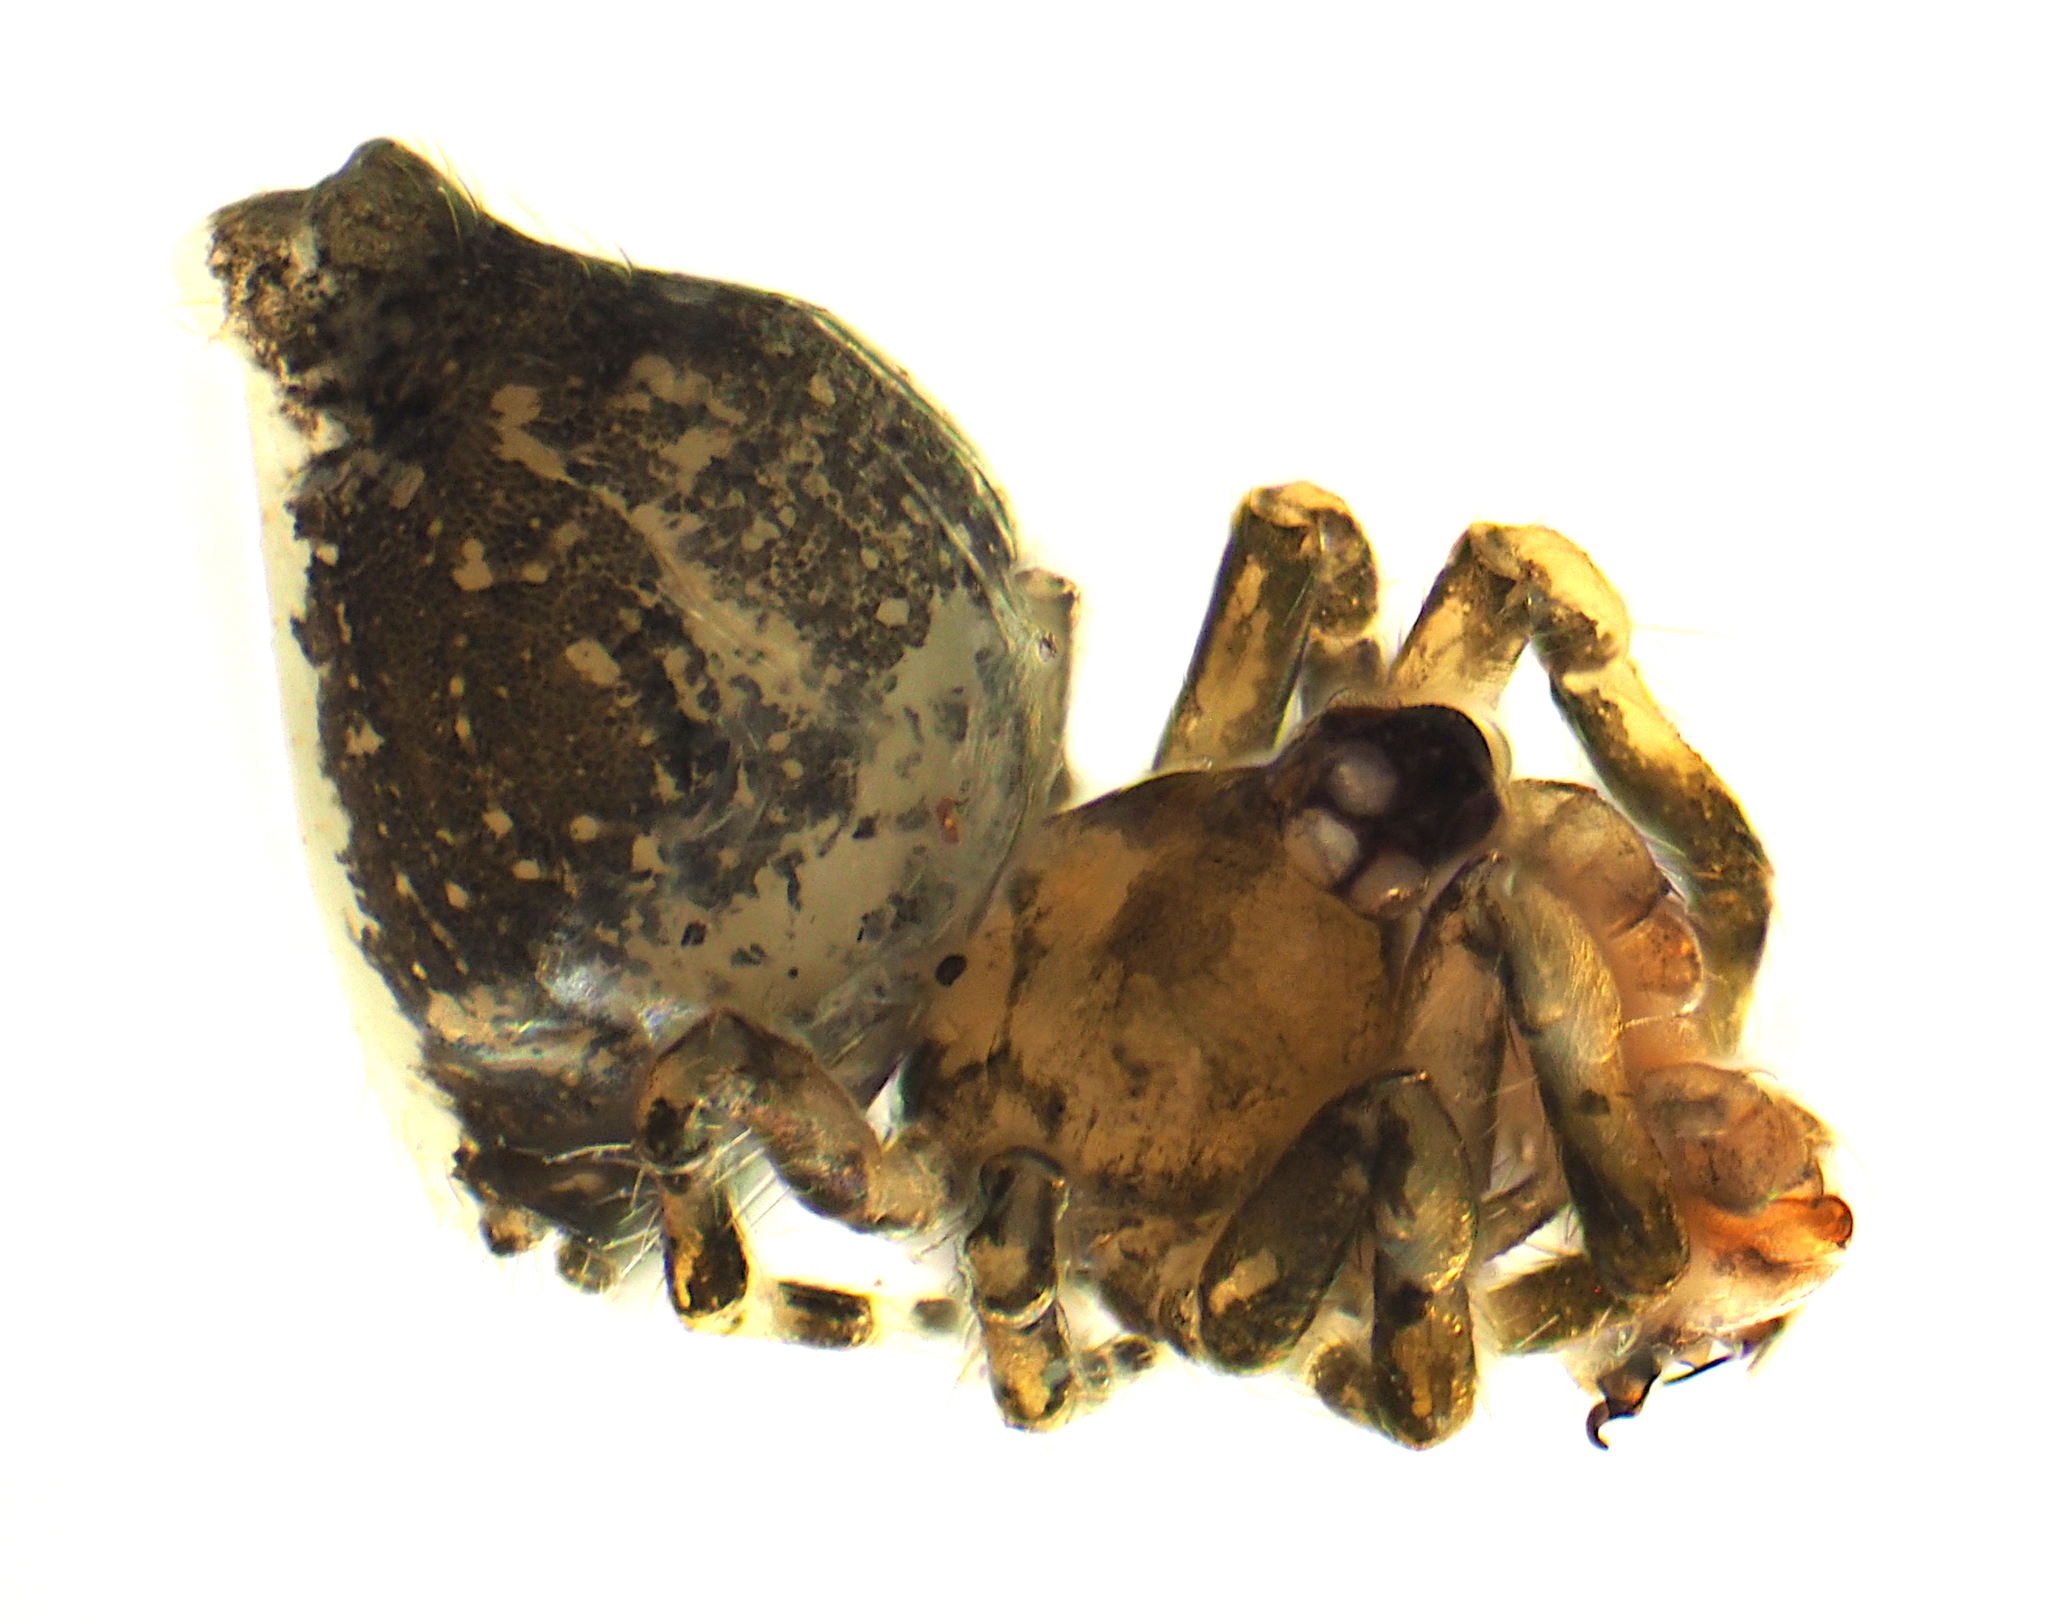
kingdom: Animalia
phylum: Arthropoda
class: Arachnida
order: Araneae
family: Mysmenidae
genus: Trogloneta
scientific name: Trogloneta
